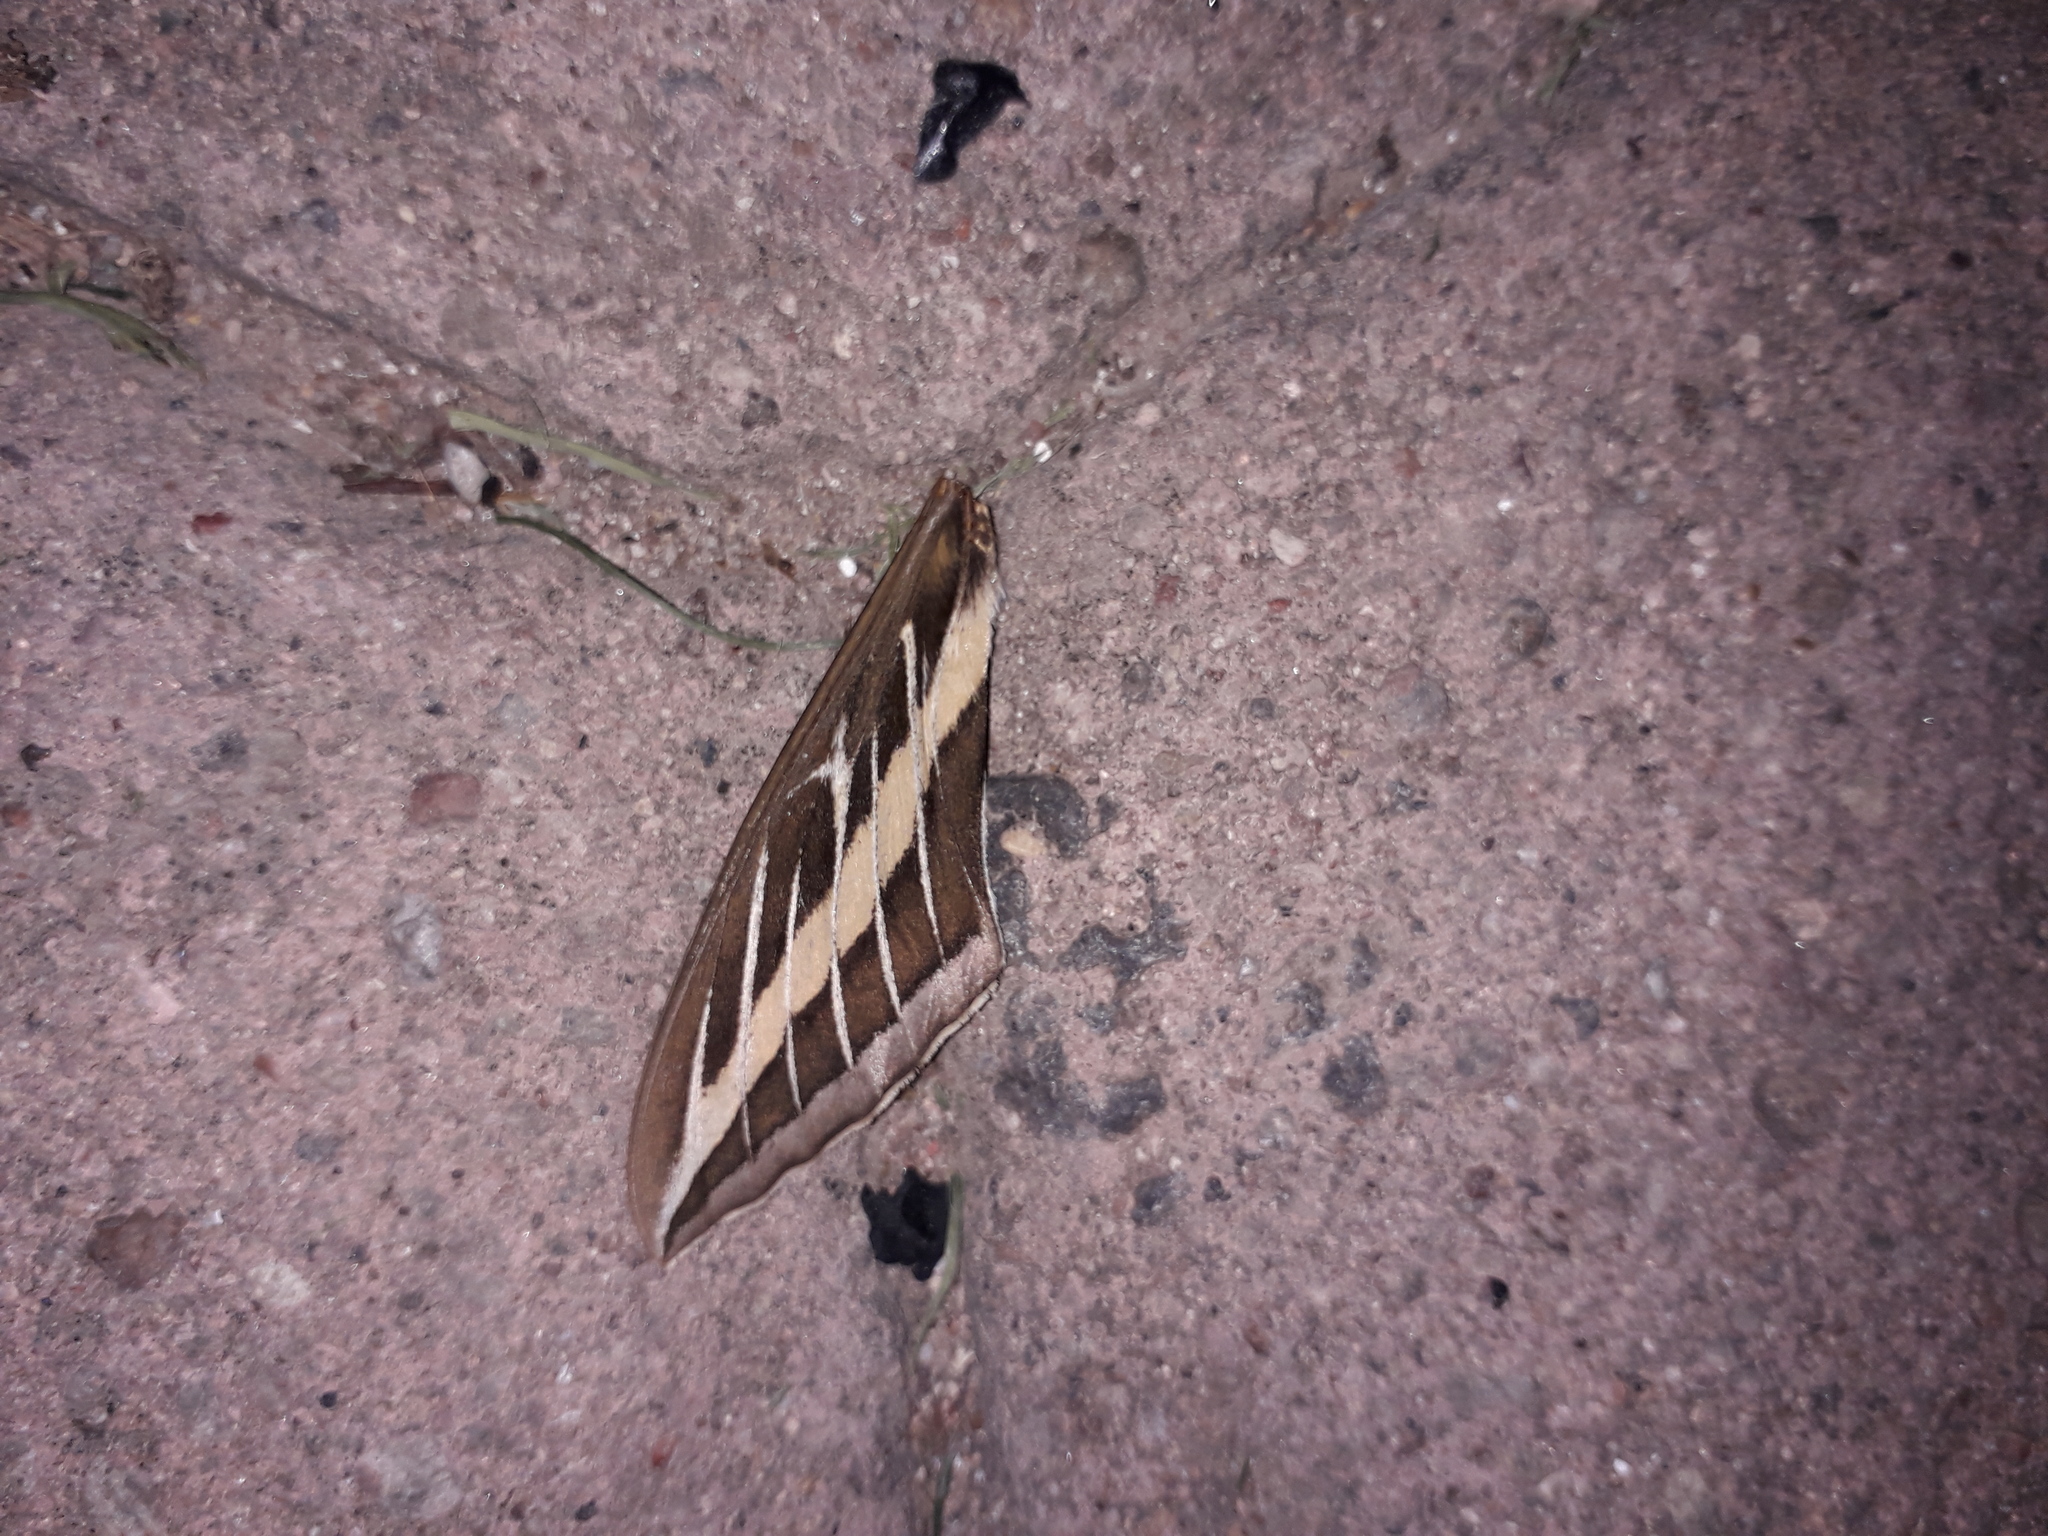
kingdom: Animalia
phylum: Arthropoda
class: Insecta
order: Lepidoptera
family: Sphingidae
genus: Hyles
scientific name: Hyles lineata
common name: White-lined sphinx
